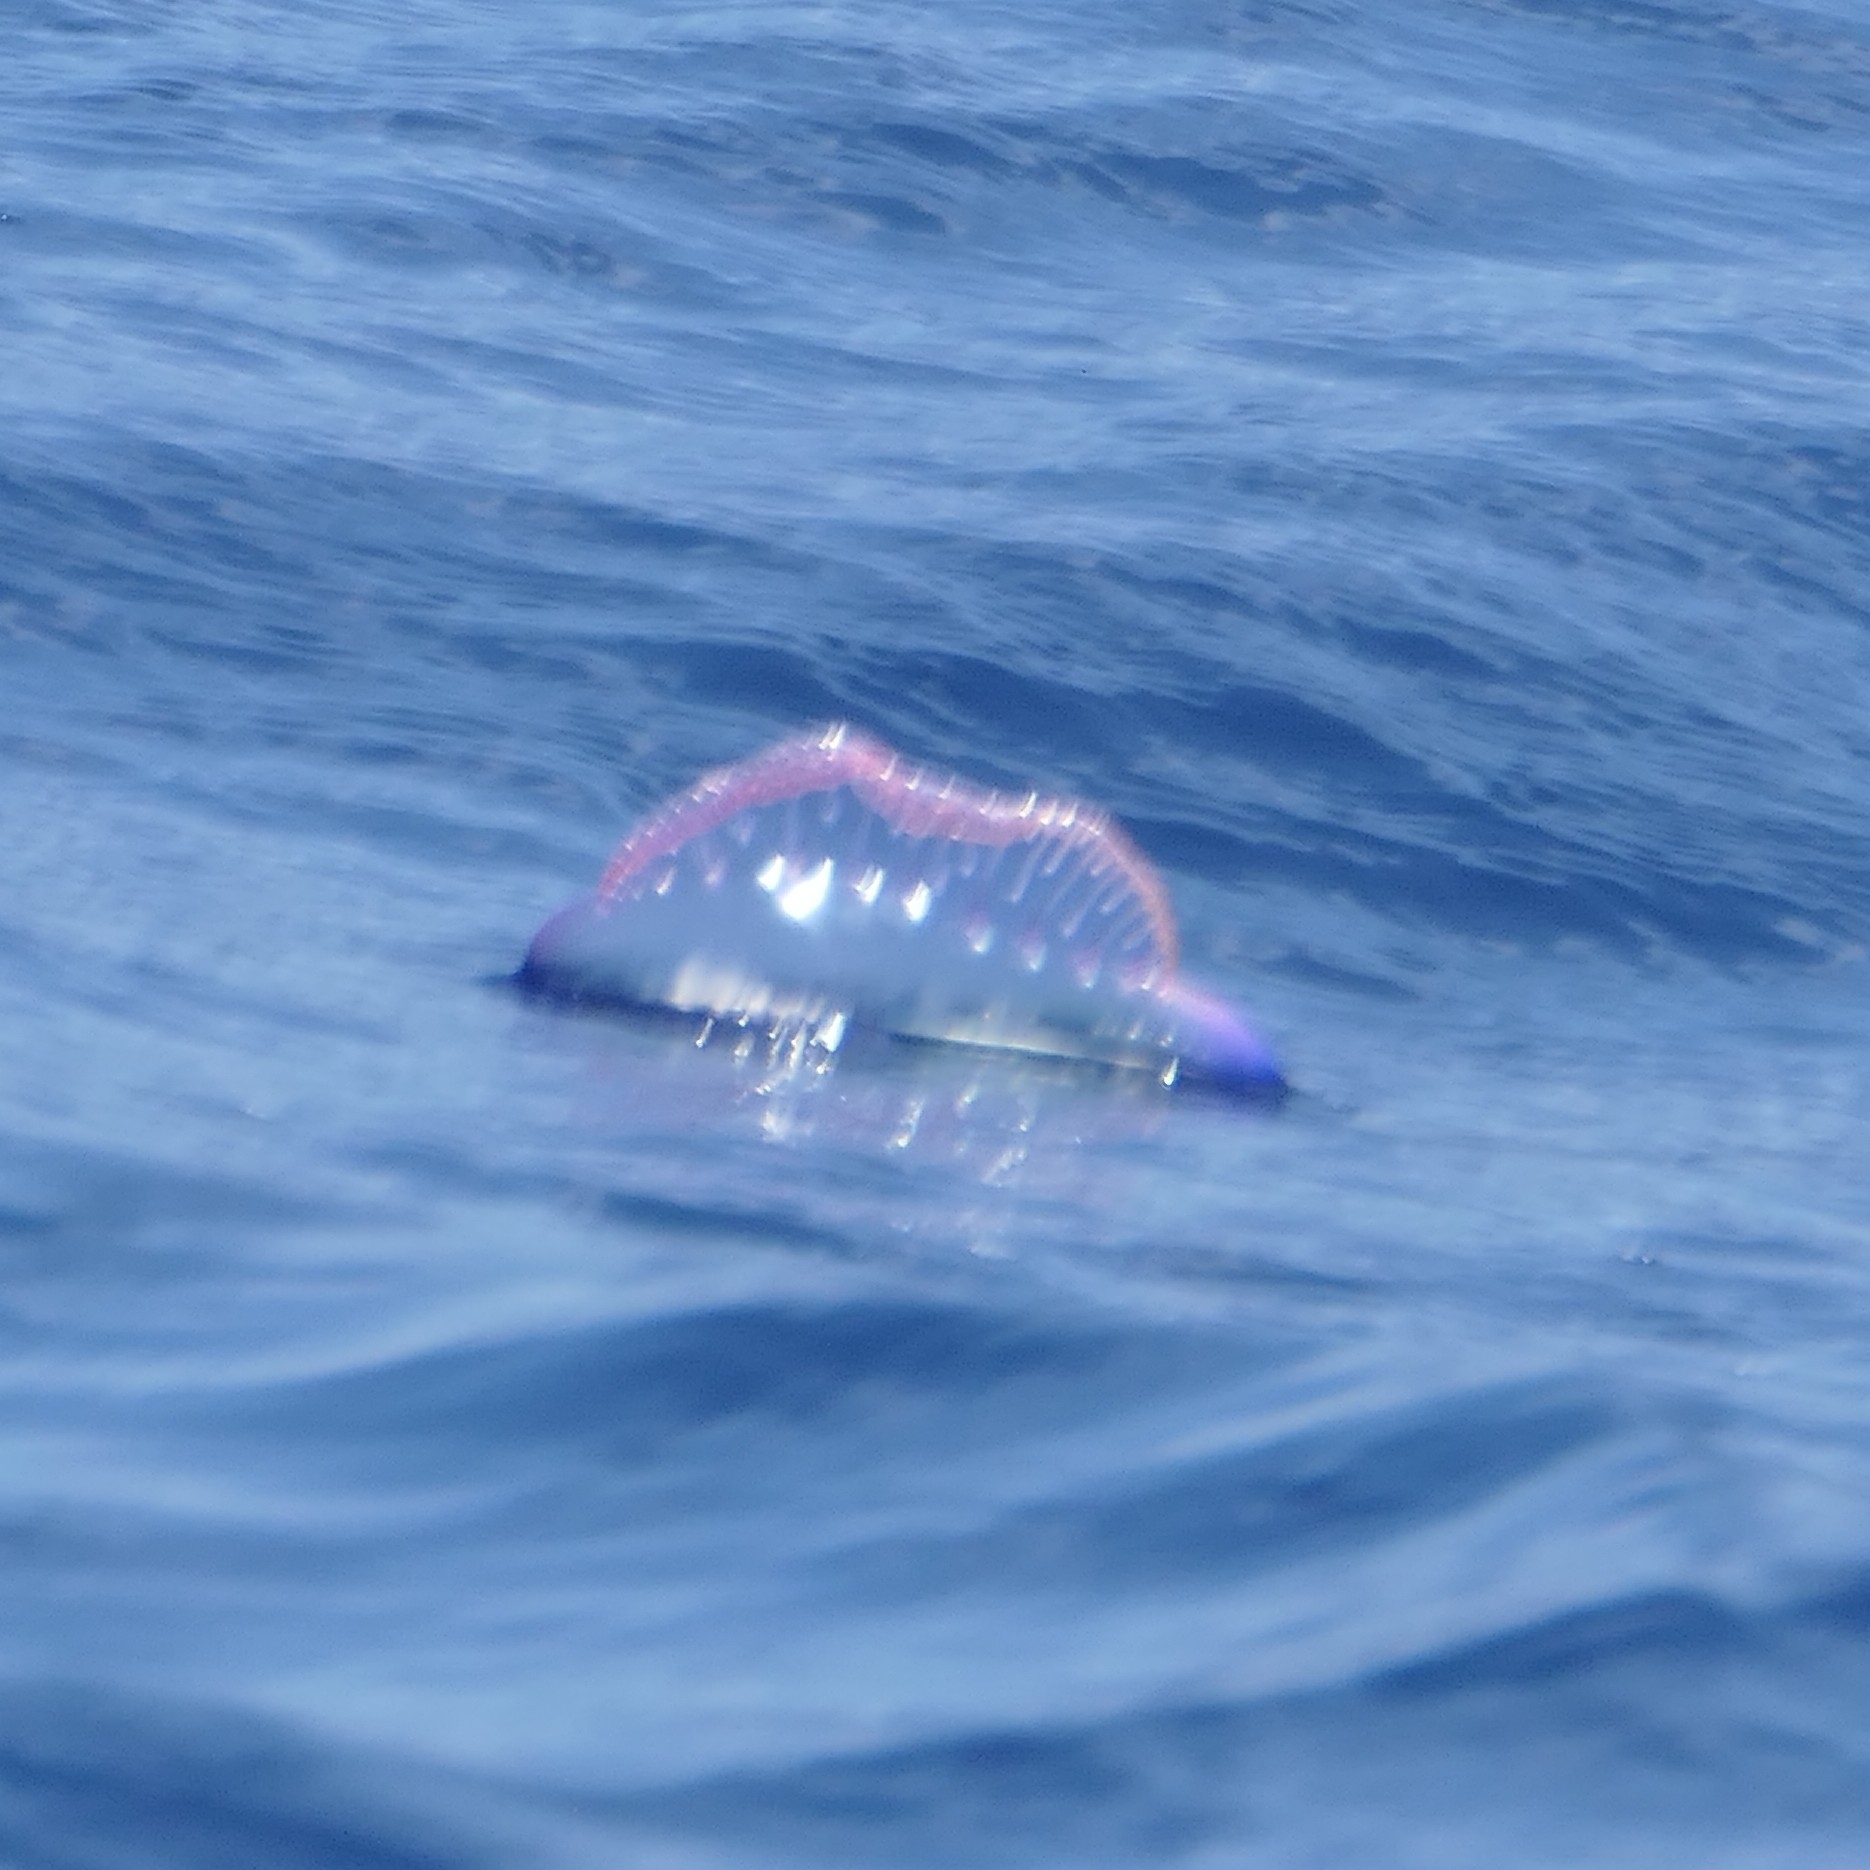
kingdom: Animalia
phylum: Cnidaria
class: Hydrozoa
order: Siphonophorae
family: Physaliidae
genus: Physalia
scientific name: Physalia physalis
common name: Portuguese man-of-war
